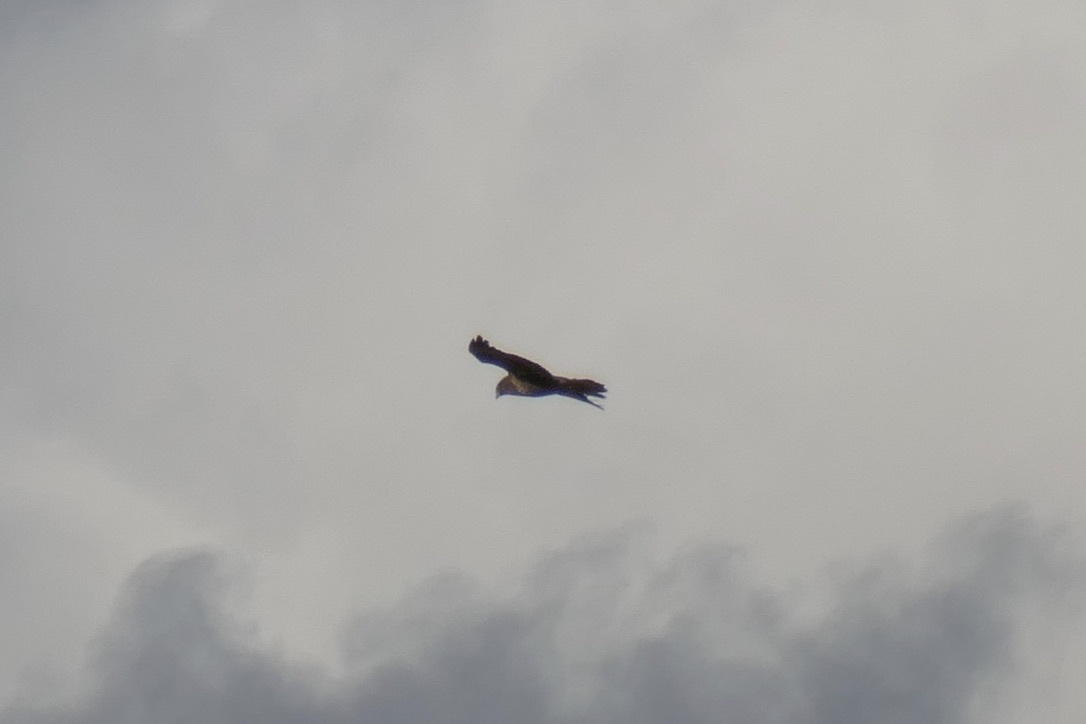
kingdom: Animalia
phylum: Chordata
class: Aves
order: Accipitriformes
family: Accipitridae
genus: Buteo
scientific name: Buteo buteo
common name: Common buzzard
